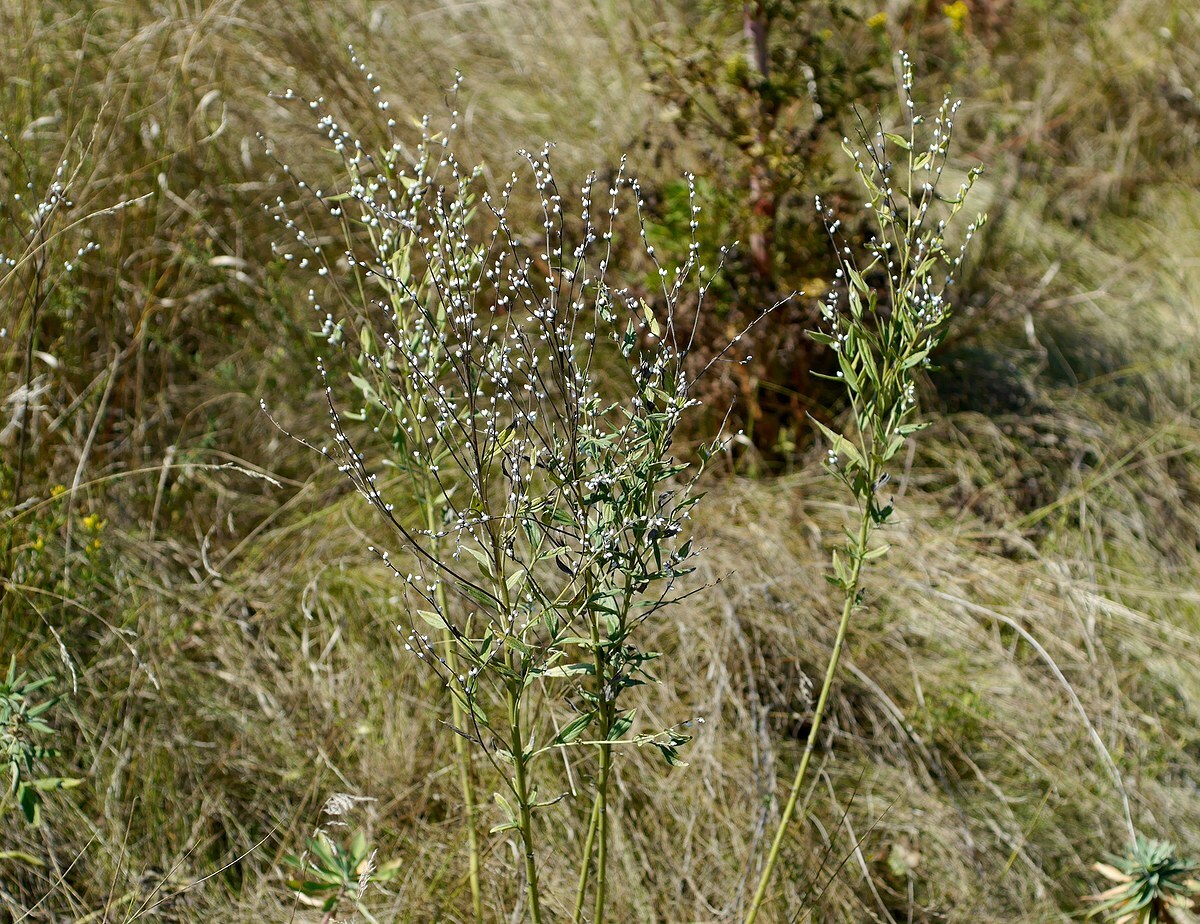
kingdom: Plantae
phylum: Tracheophyta
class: Magnoliopsida
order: Boraginales
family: Boraginaceae
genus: Lithospermum
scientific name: Lithospermum officinale
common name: Common gromwell
